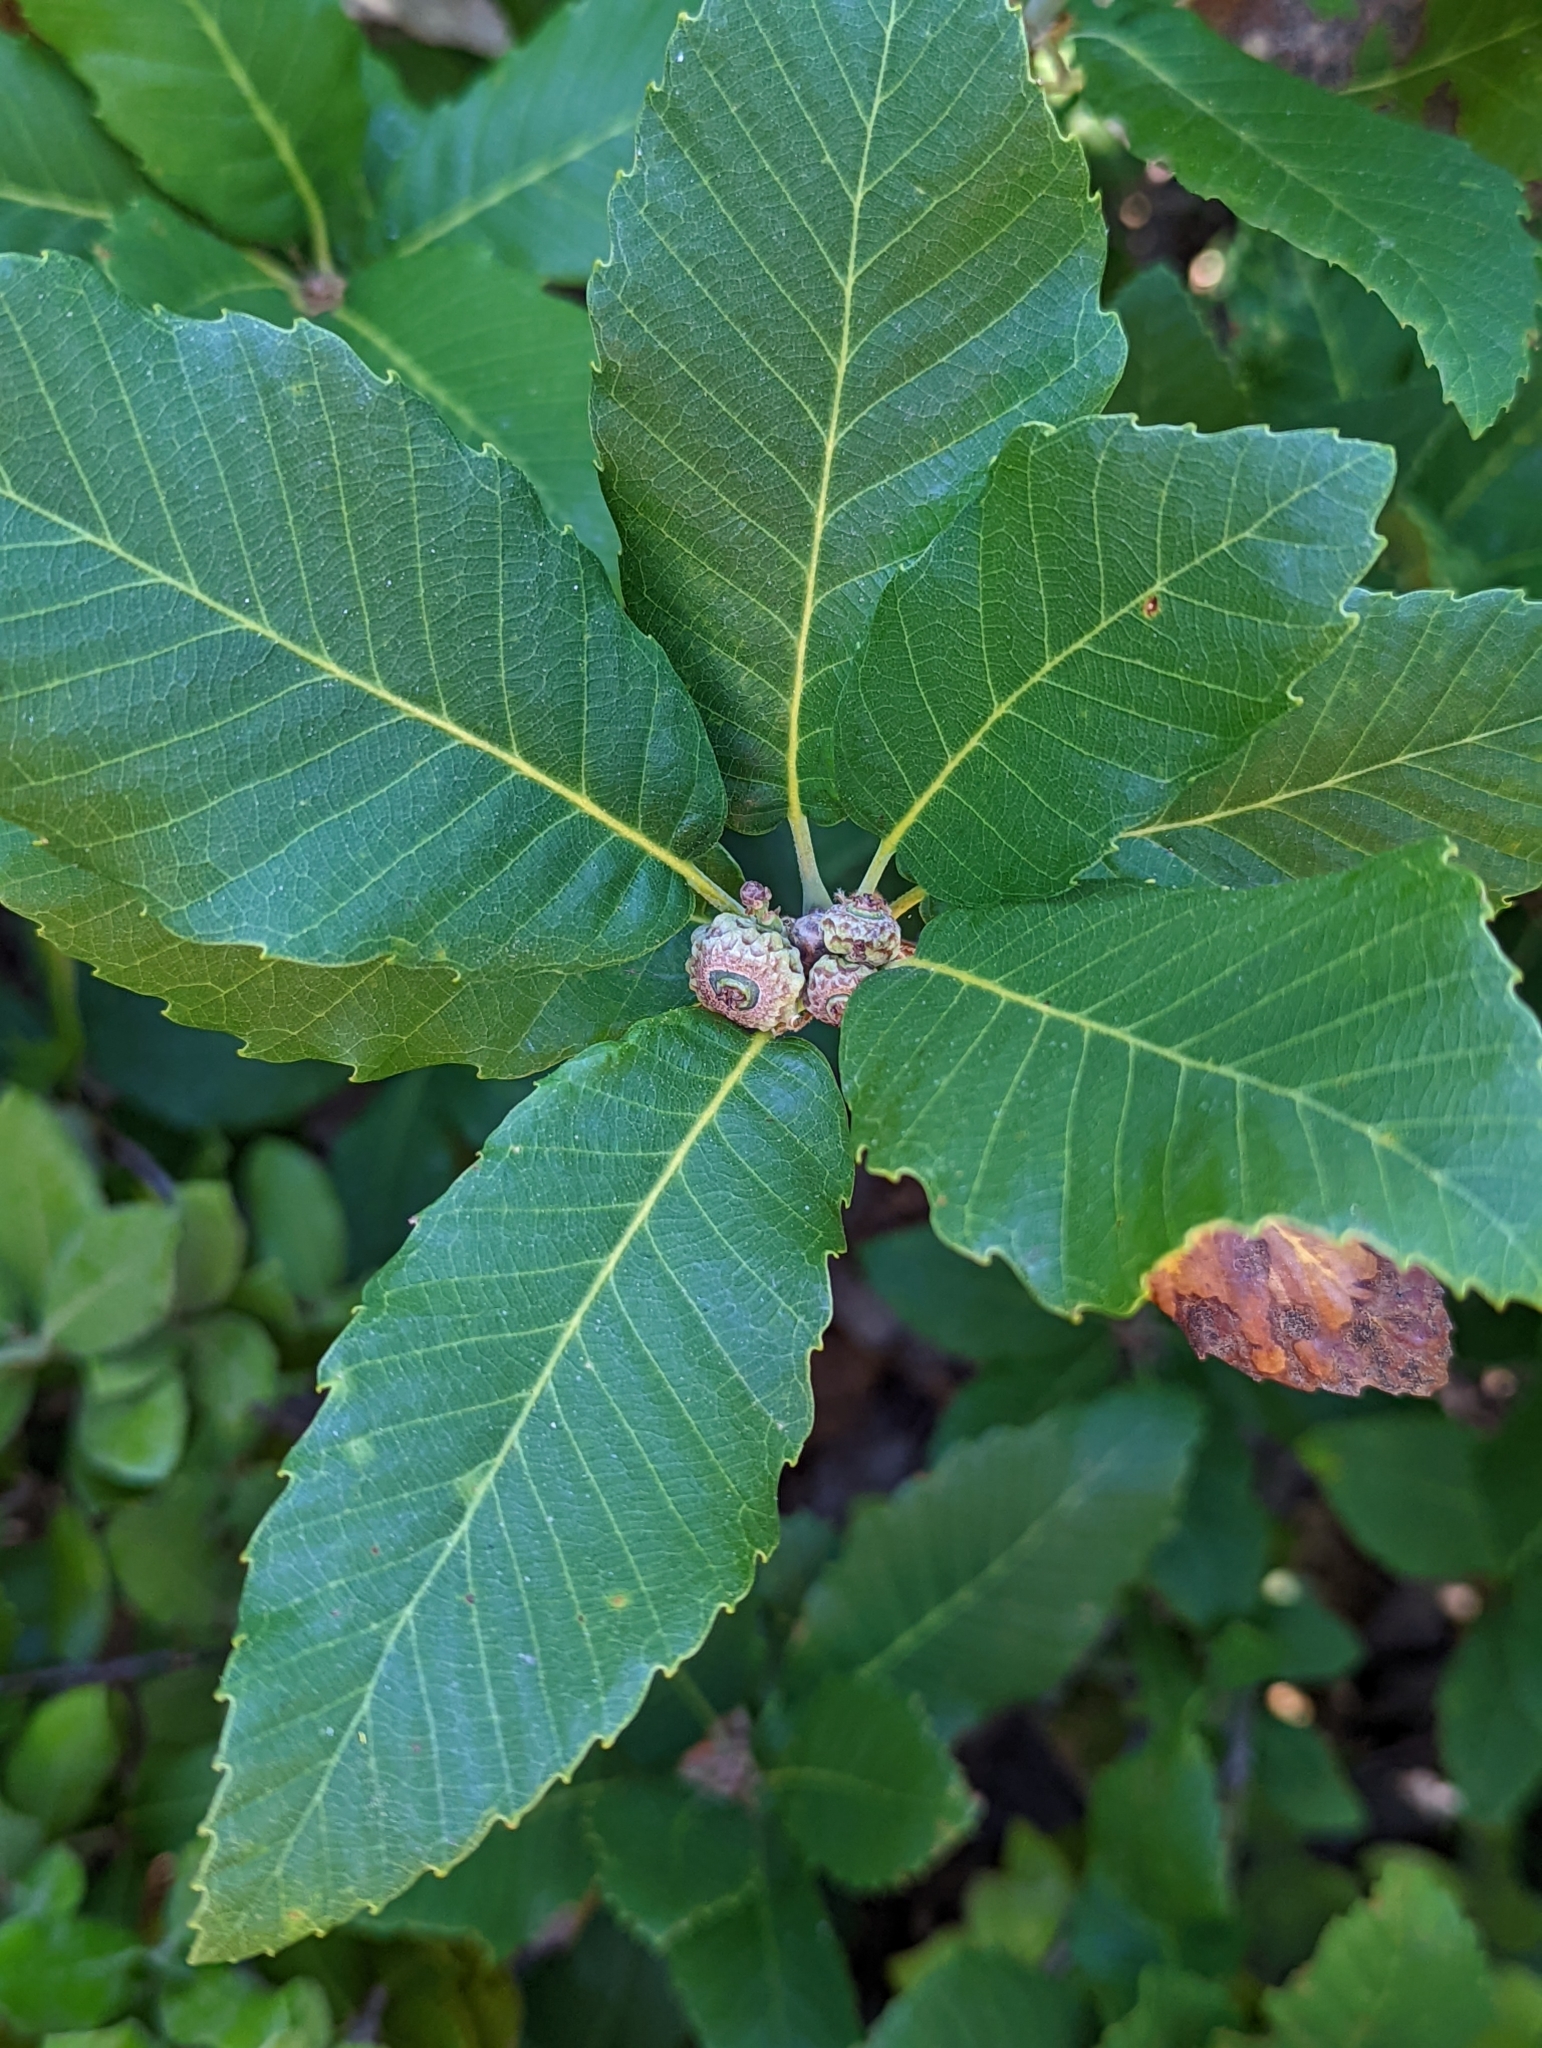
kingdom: Plantae
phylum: Tracheophyta
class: Magnoliopsida
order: Fagales
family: Fagaceae
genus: Quercus
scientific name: Quercus sadleriana
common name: Deer oak
